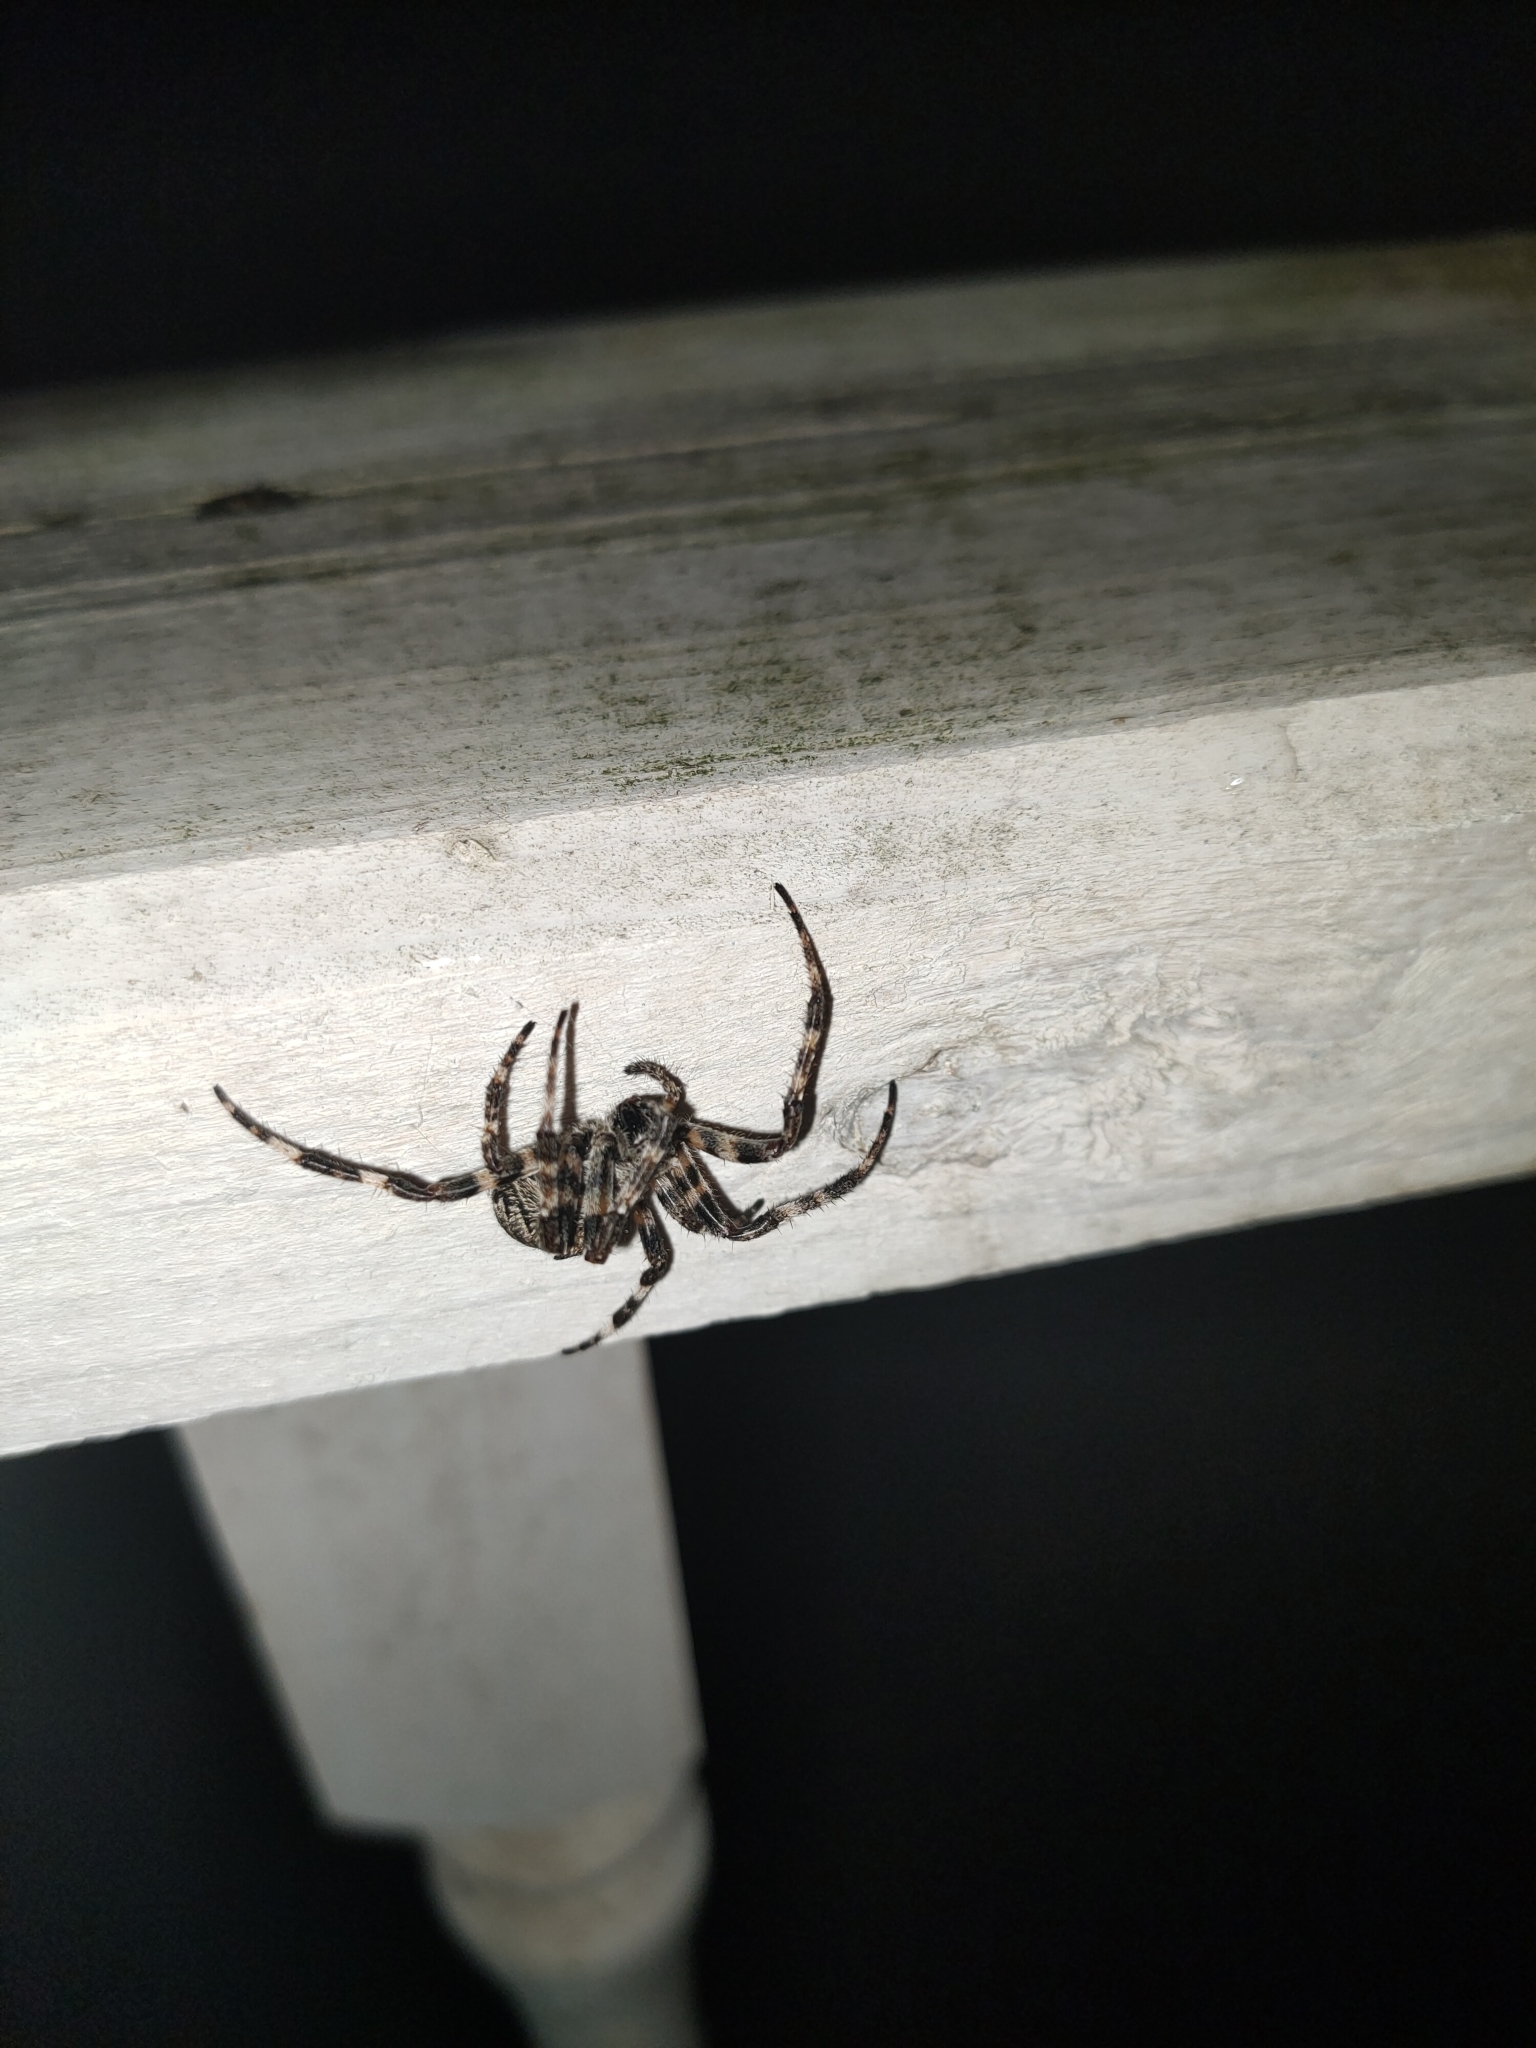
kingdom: Animalia
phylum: Arthropoda
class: Arachnida
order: Araneae
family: Araneidae
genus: Araneus
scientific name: Araneus angulatus
